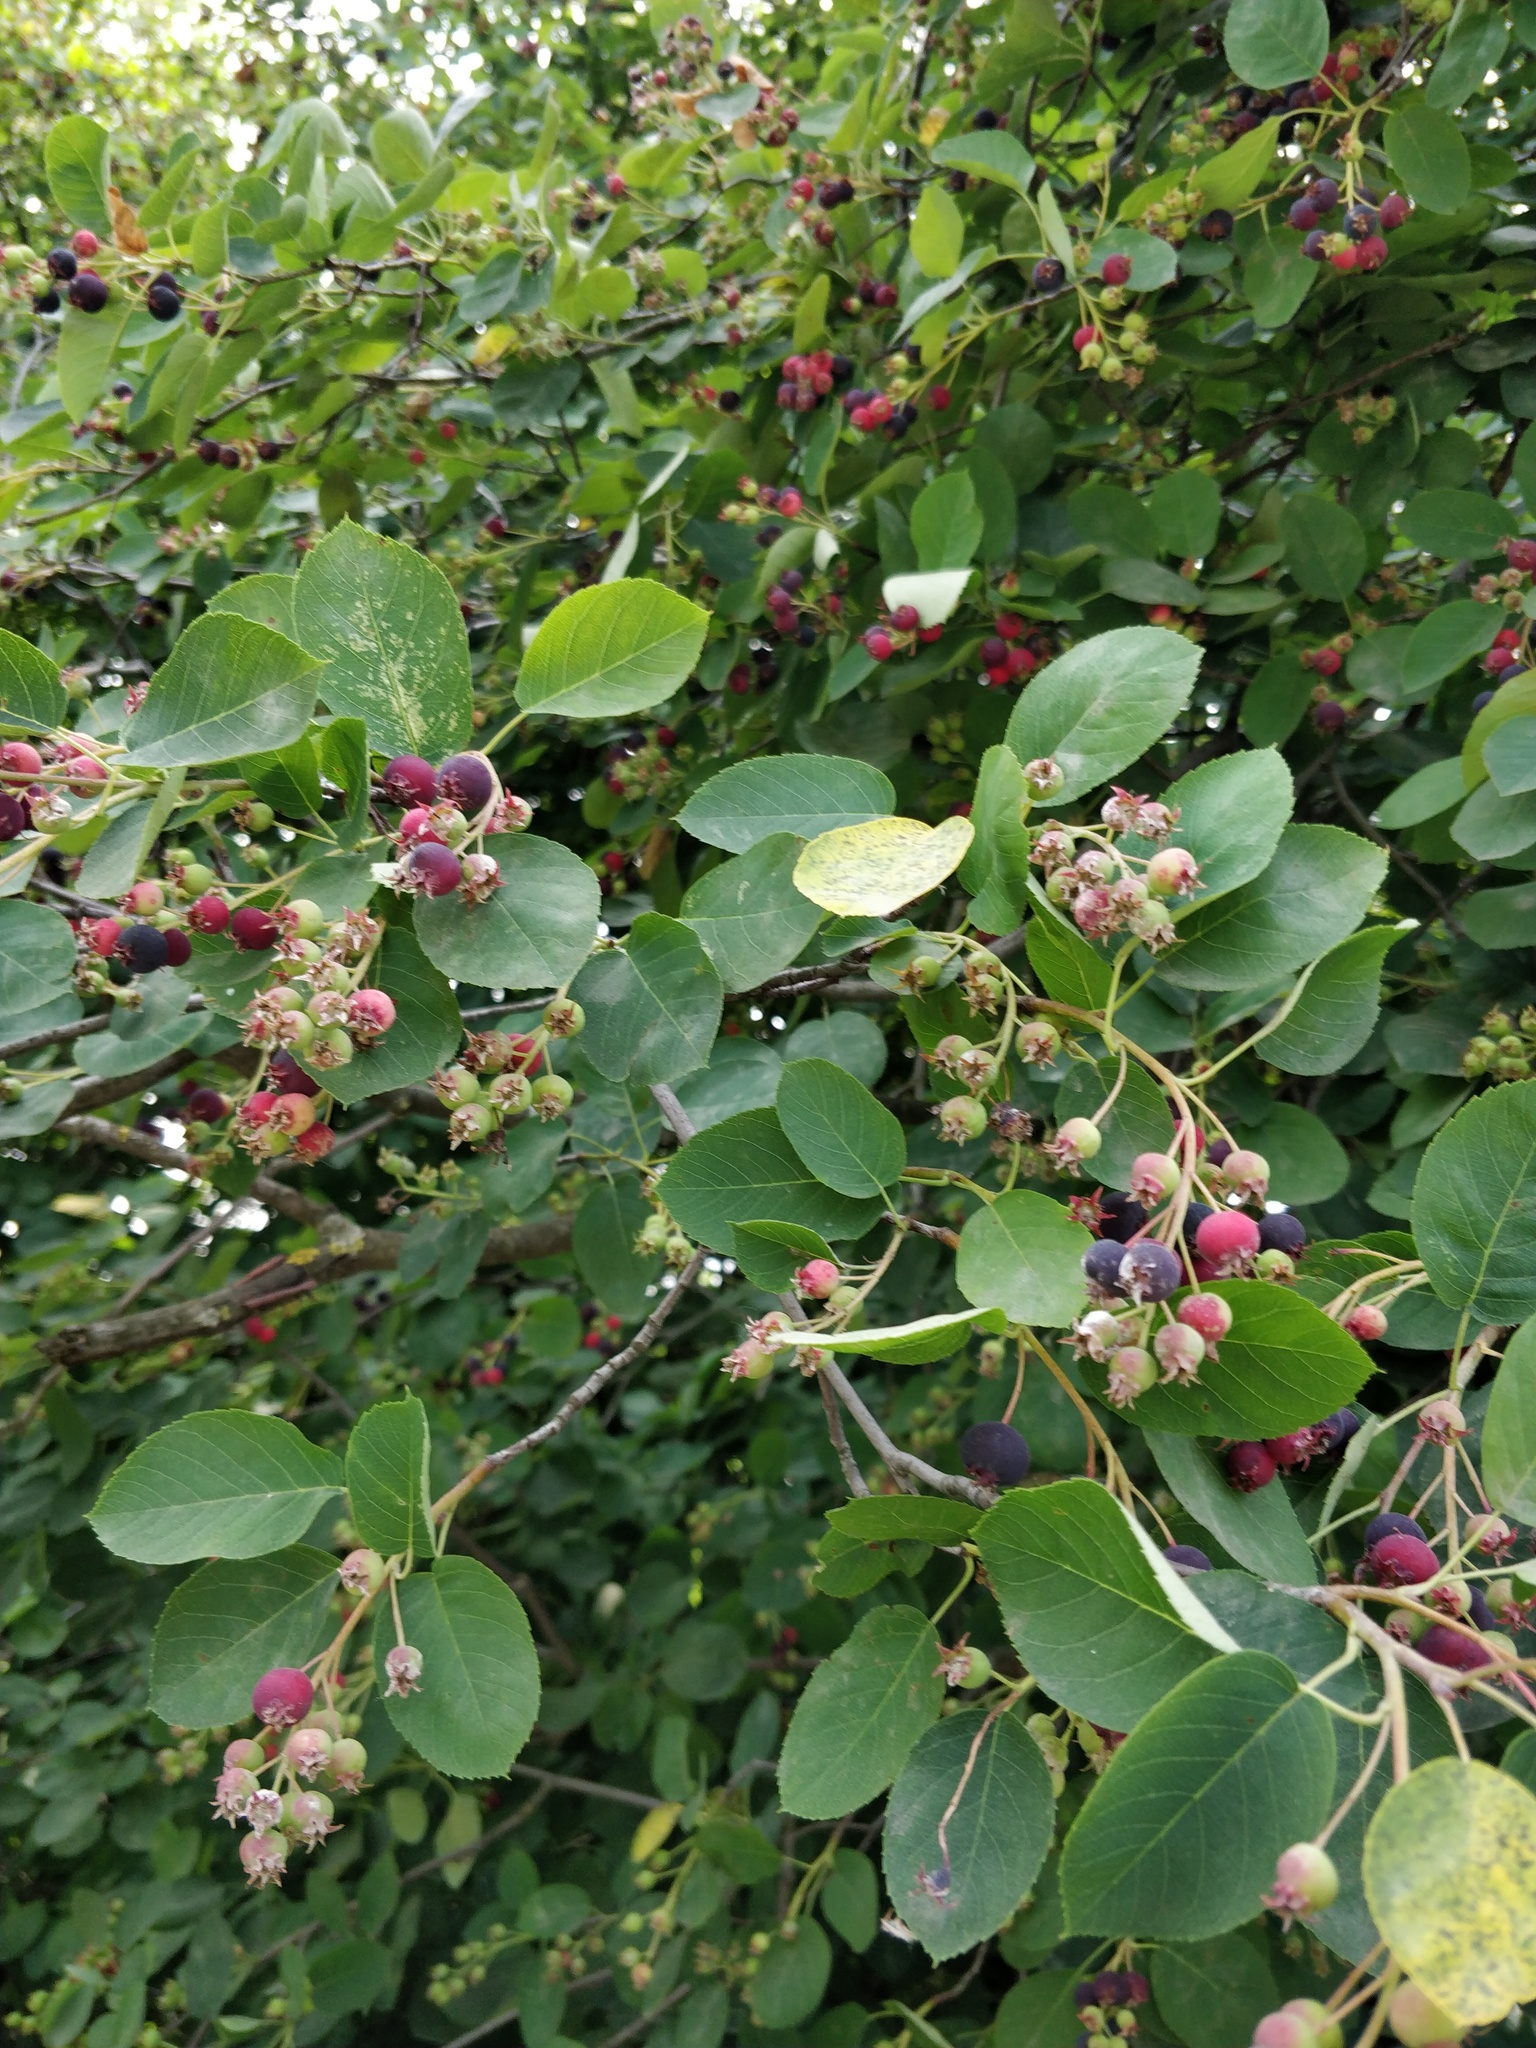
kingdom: Plantae
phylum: Tracheophyta
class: Magnoliopsida
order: Rosales
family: Rosaceae
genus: Amelanchier
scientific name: Amelanchier
